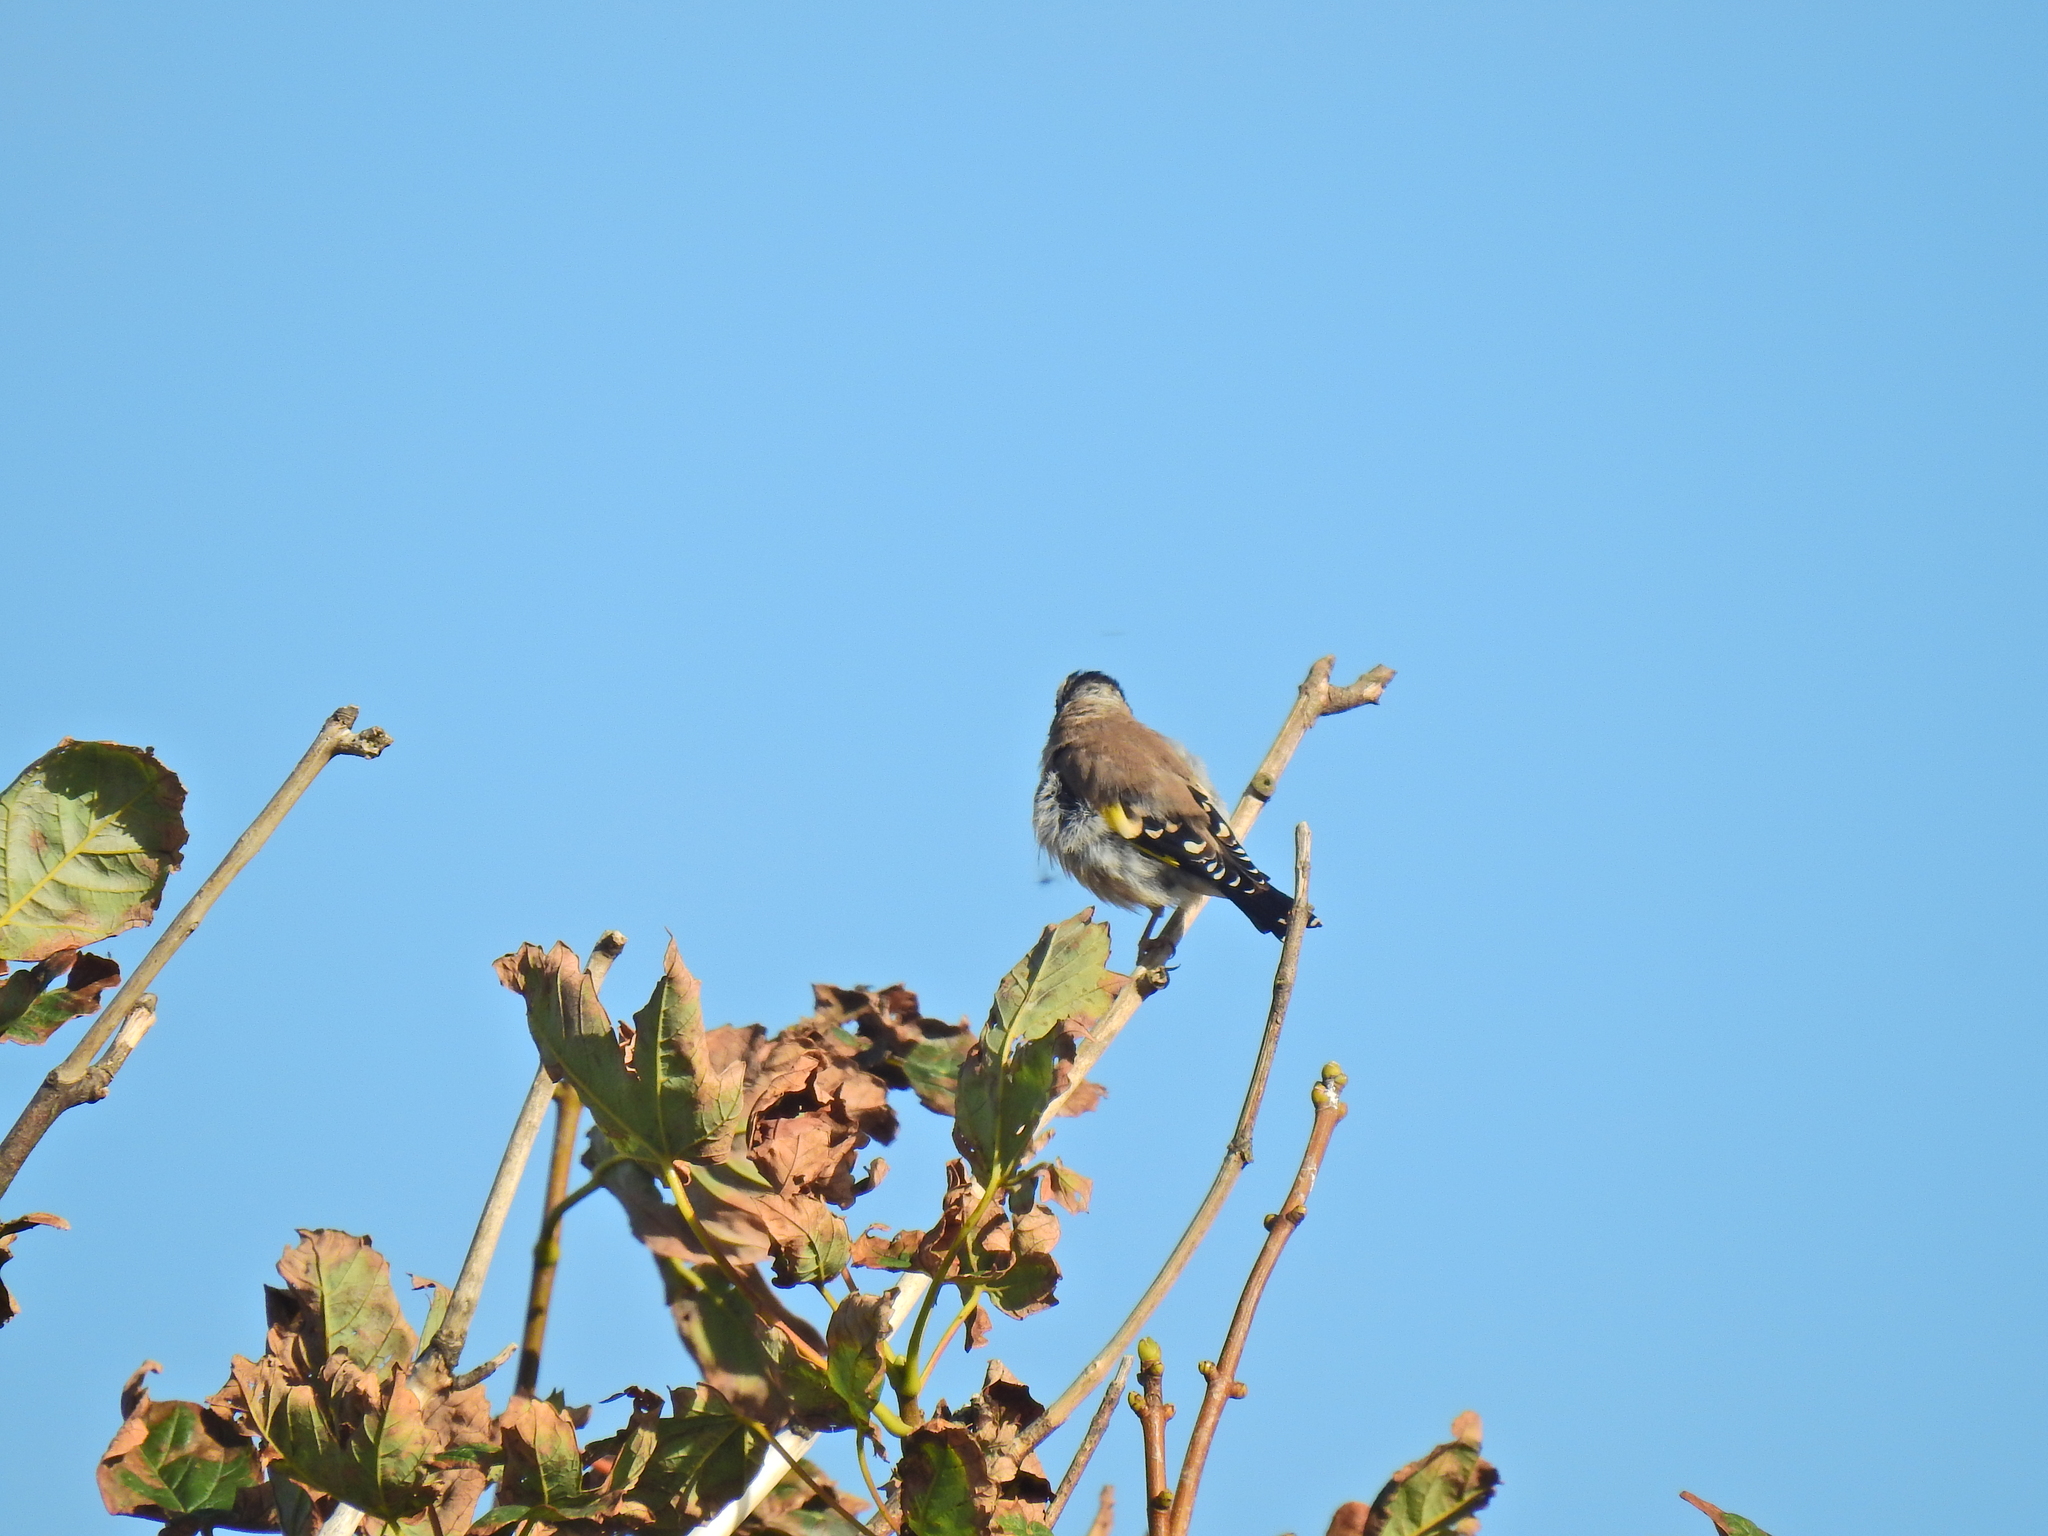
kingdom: Animalia
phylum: Chordata
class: Aves
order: Passeriformes
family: Fringillidae
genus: Carduelis
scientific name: Carduelis carduelis
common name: European goldfinch
